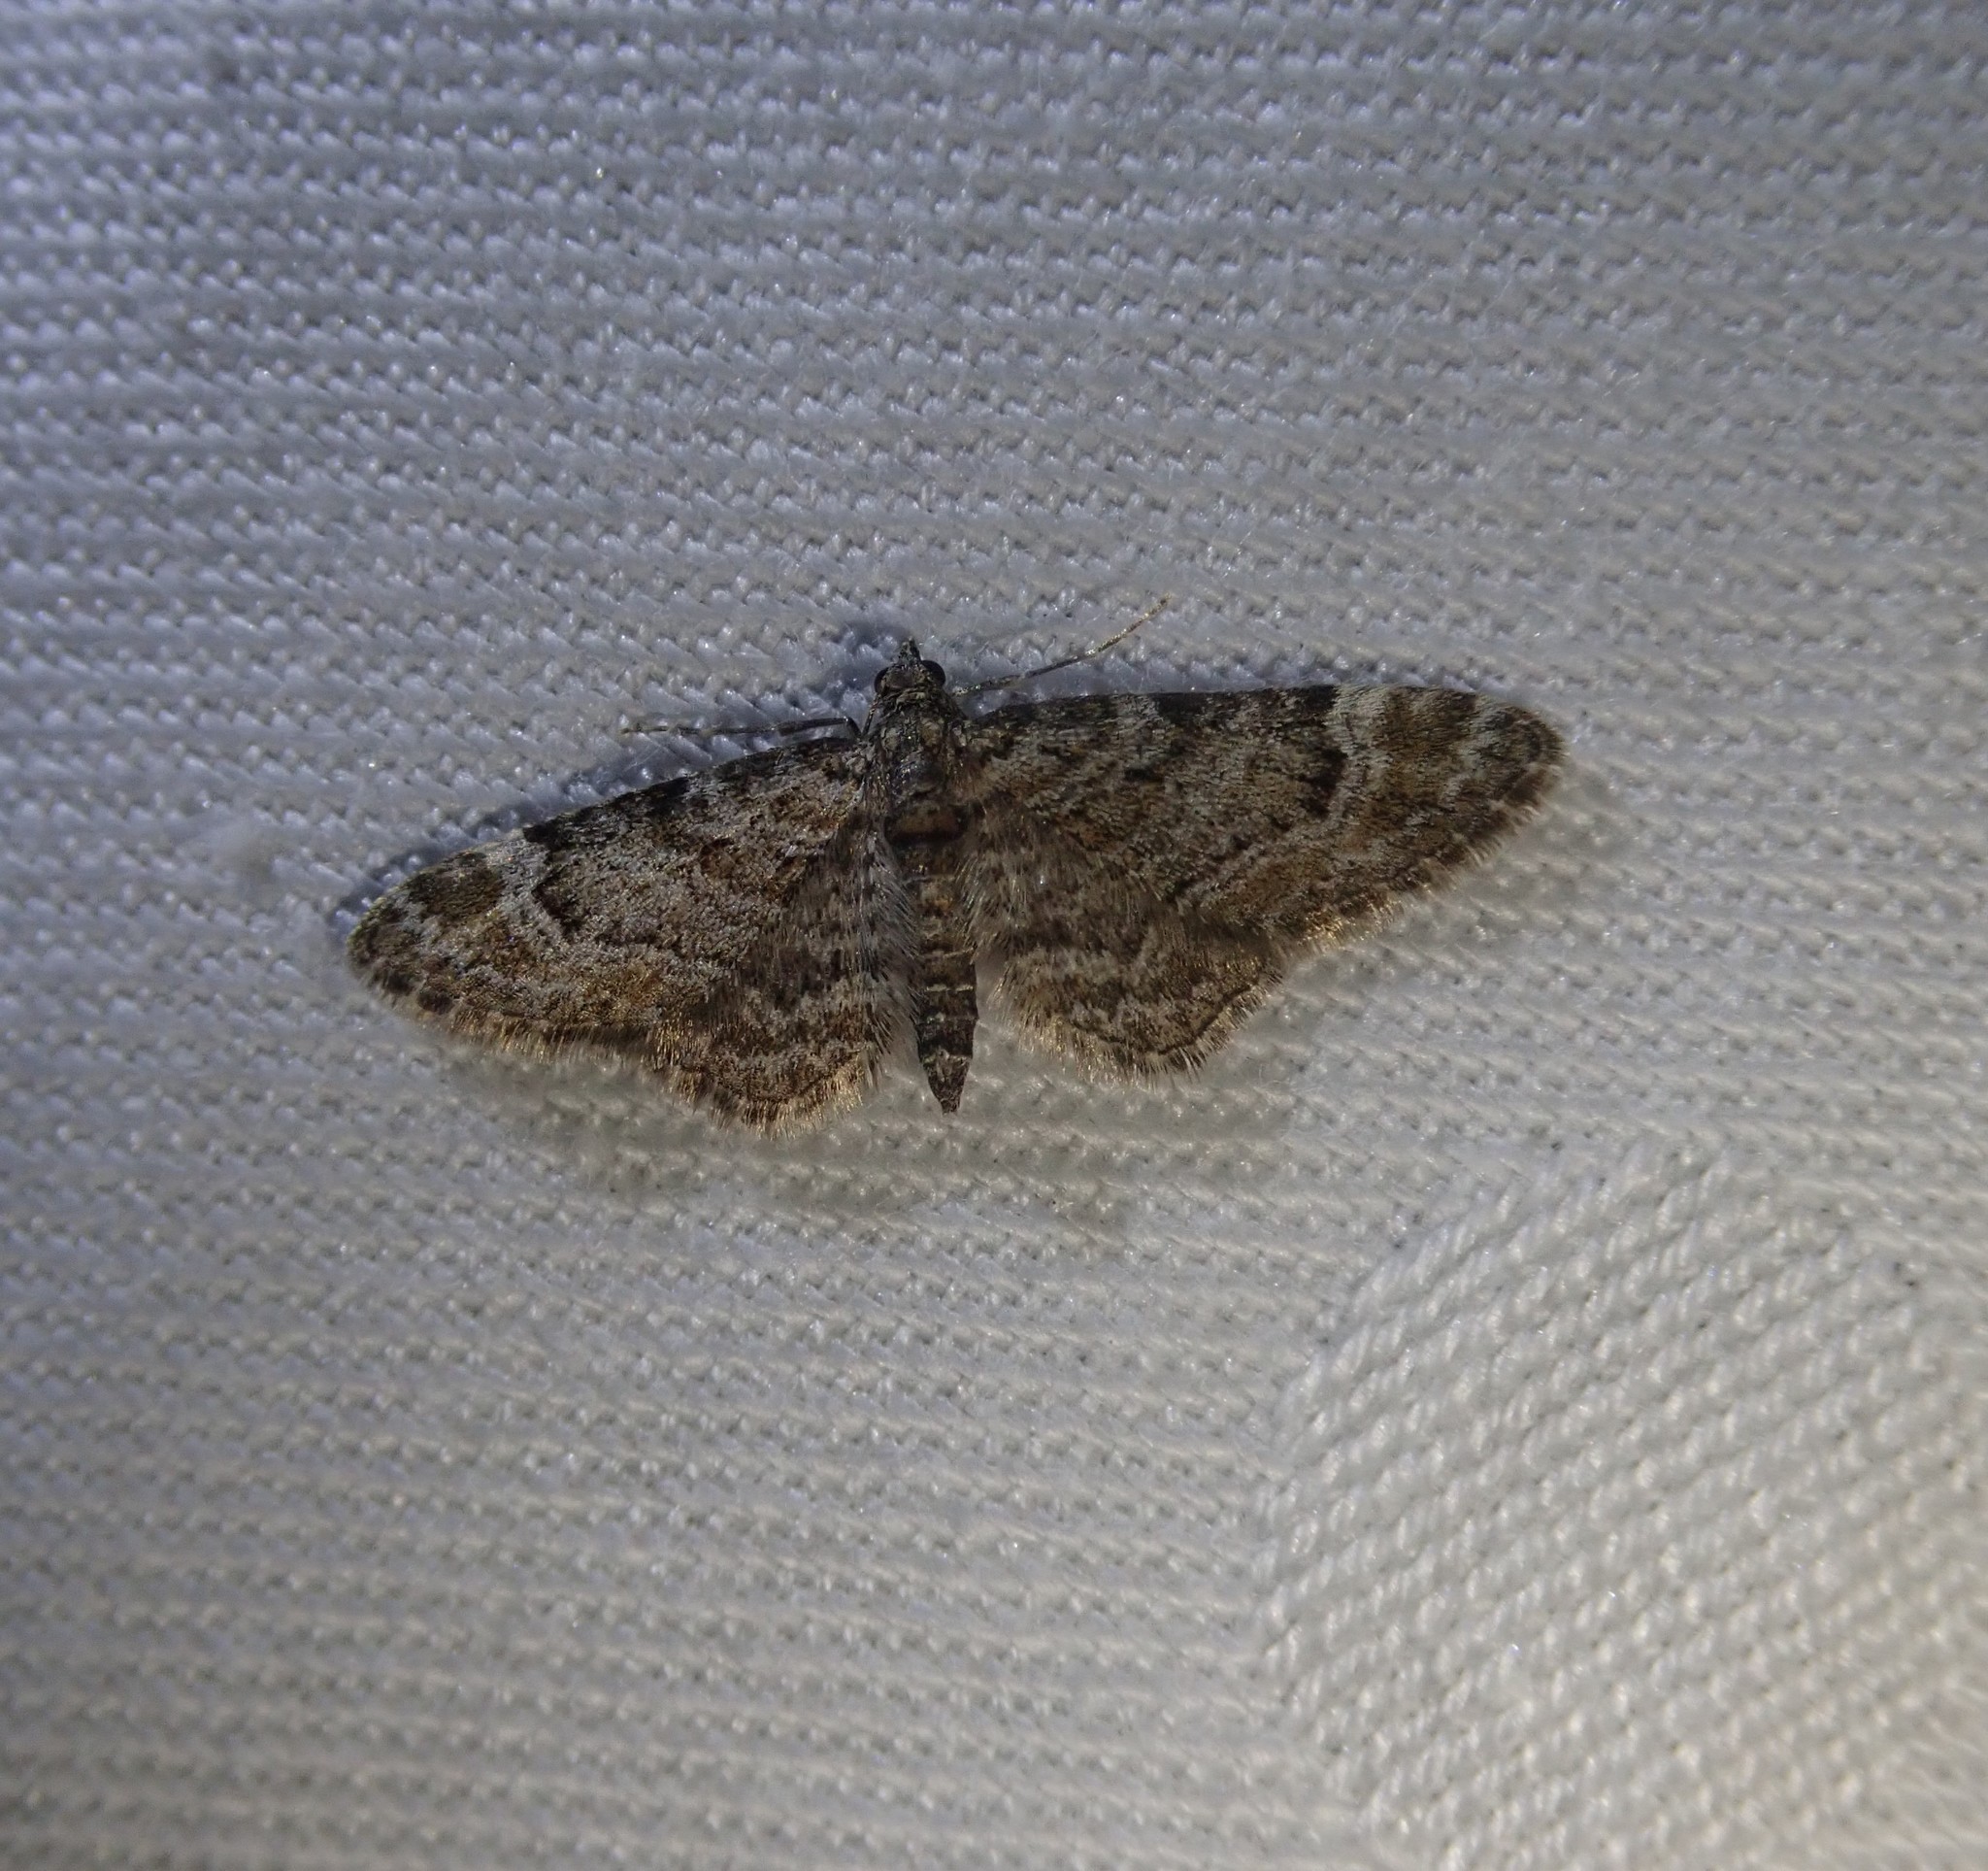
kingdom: Animalia
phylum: Arthropoda
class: Insecta
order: Lepidoptera
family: Geometridae
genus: Gymnoscelis
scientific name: Gymnoscelis rufifasciata
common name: Double-striped pug
